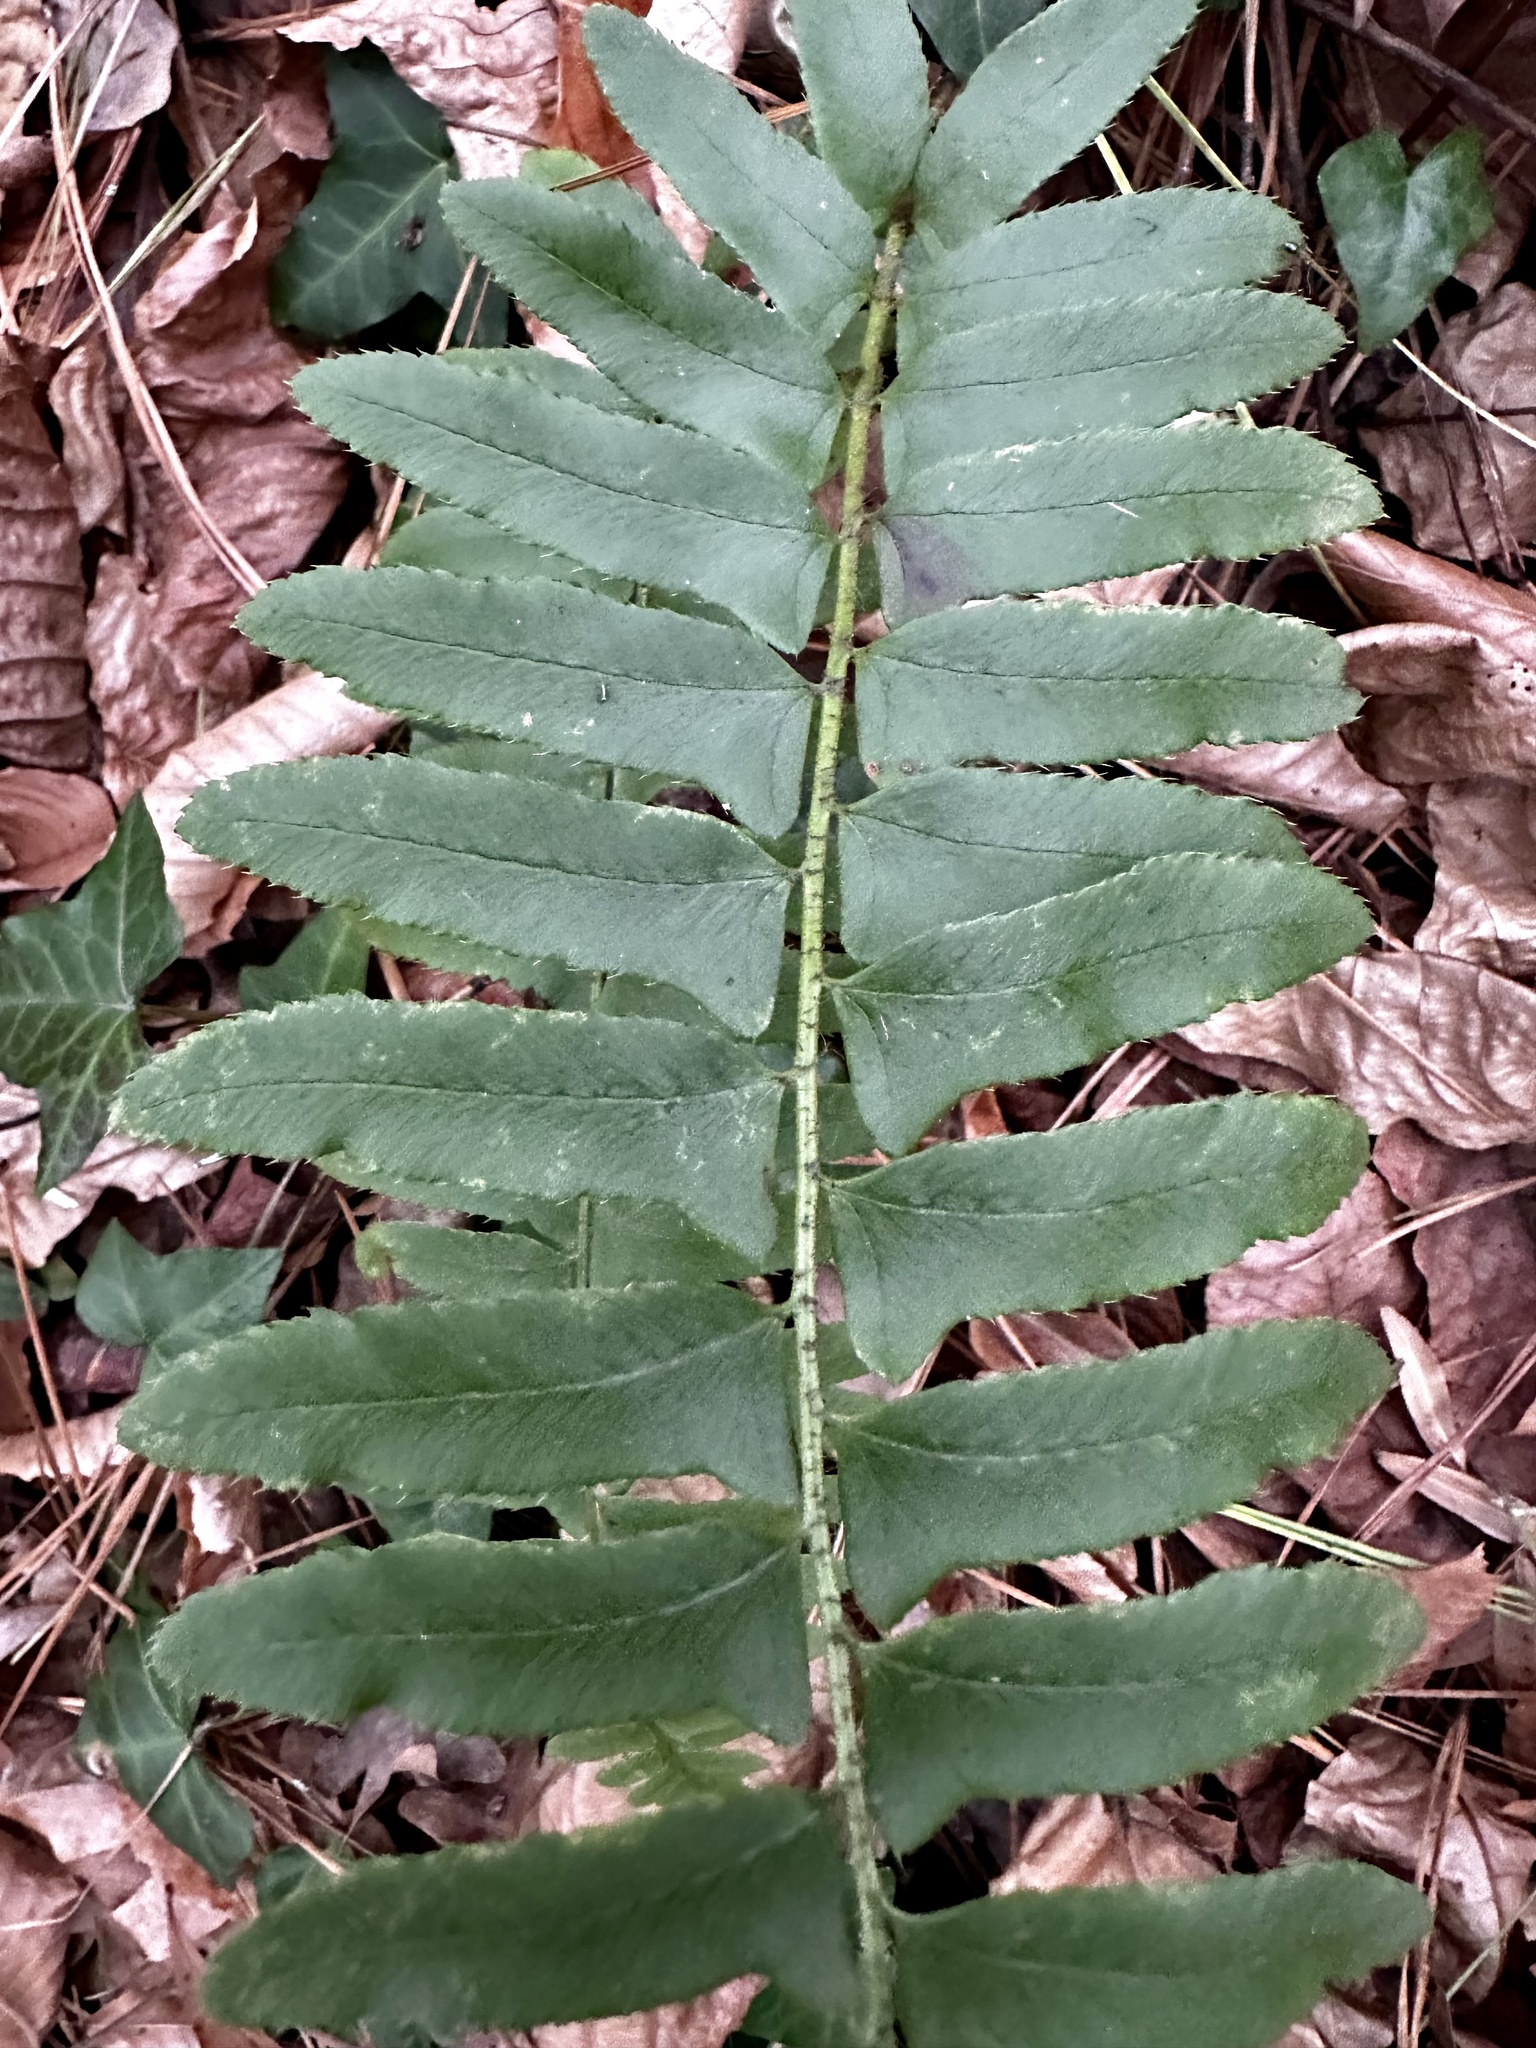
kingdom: Plantae
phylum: Tracheophyta
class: Polypodiopsida
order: Polypodiales
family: Dryopteridaceae
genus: Polystichum
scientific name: Polystichum acrostichoides
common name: Christmas fern
